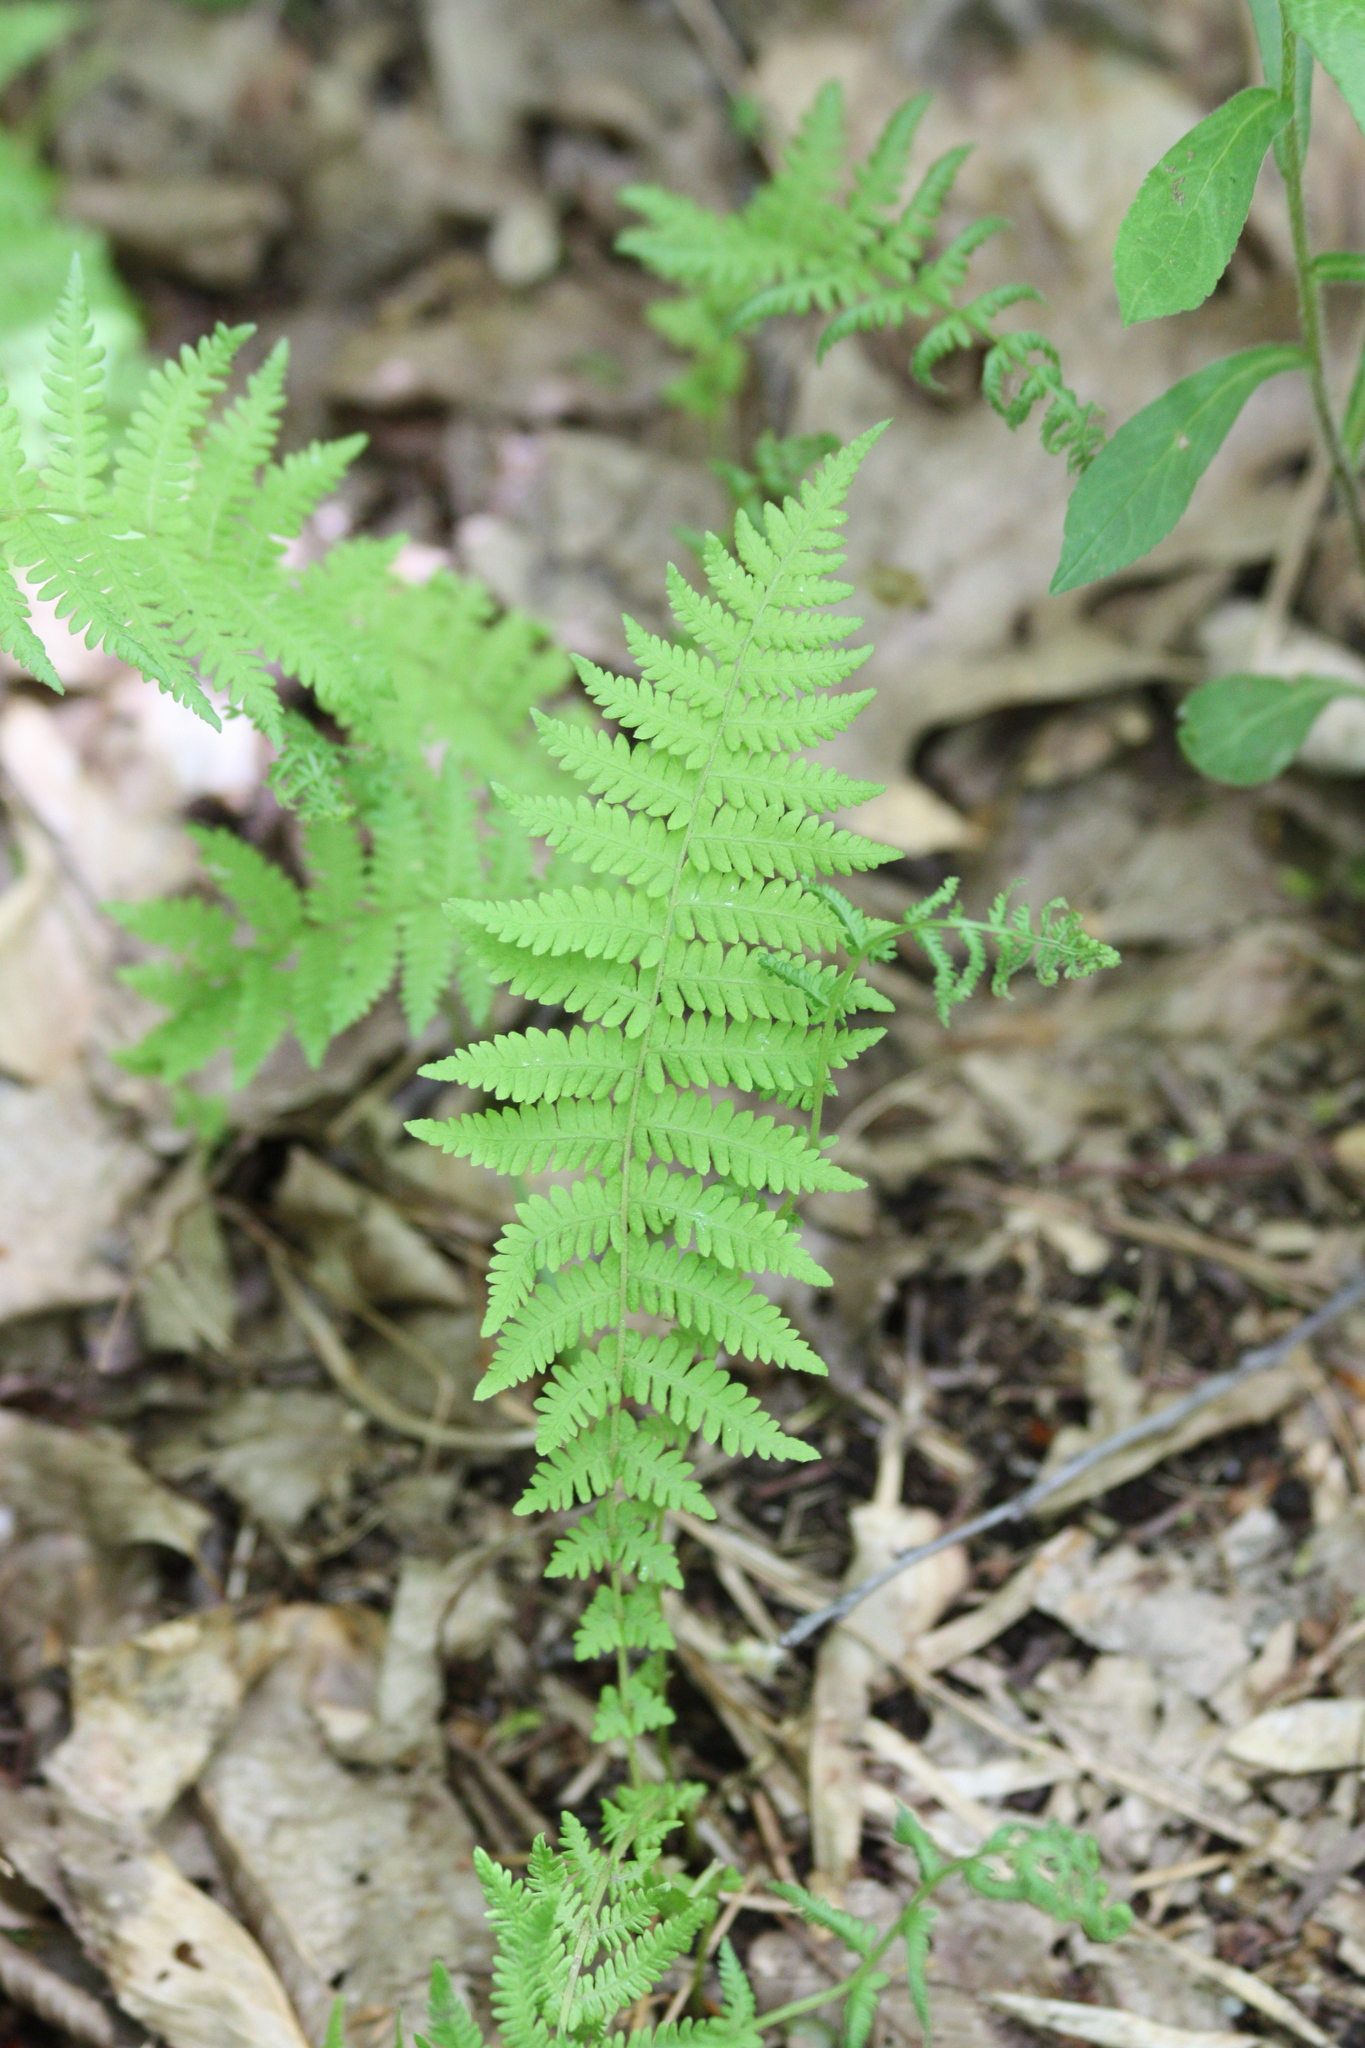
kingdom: Plantae
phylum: Tracheophyta
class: Polypodiopsida
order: Polypodiales
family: Thelypteridaceae
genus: Amauropelta
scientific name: Amauropelta noveboracensis
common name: New york fern
